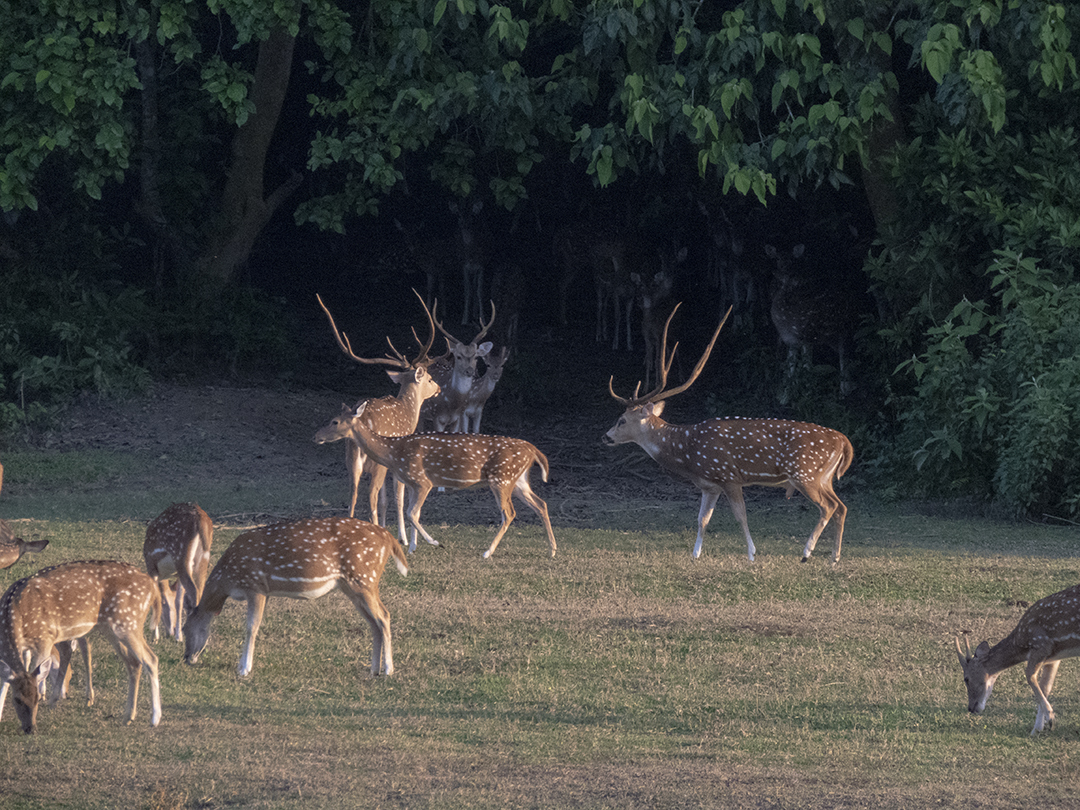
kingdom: Animalia
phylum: Chordata
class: Mammalia
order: Artiodactyla
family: Cervidae
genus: Axis
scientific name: Axis axis
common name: Chital
